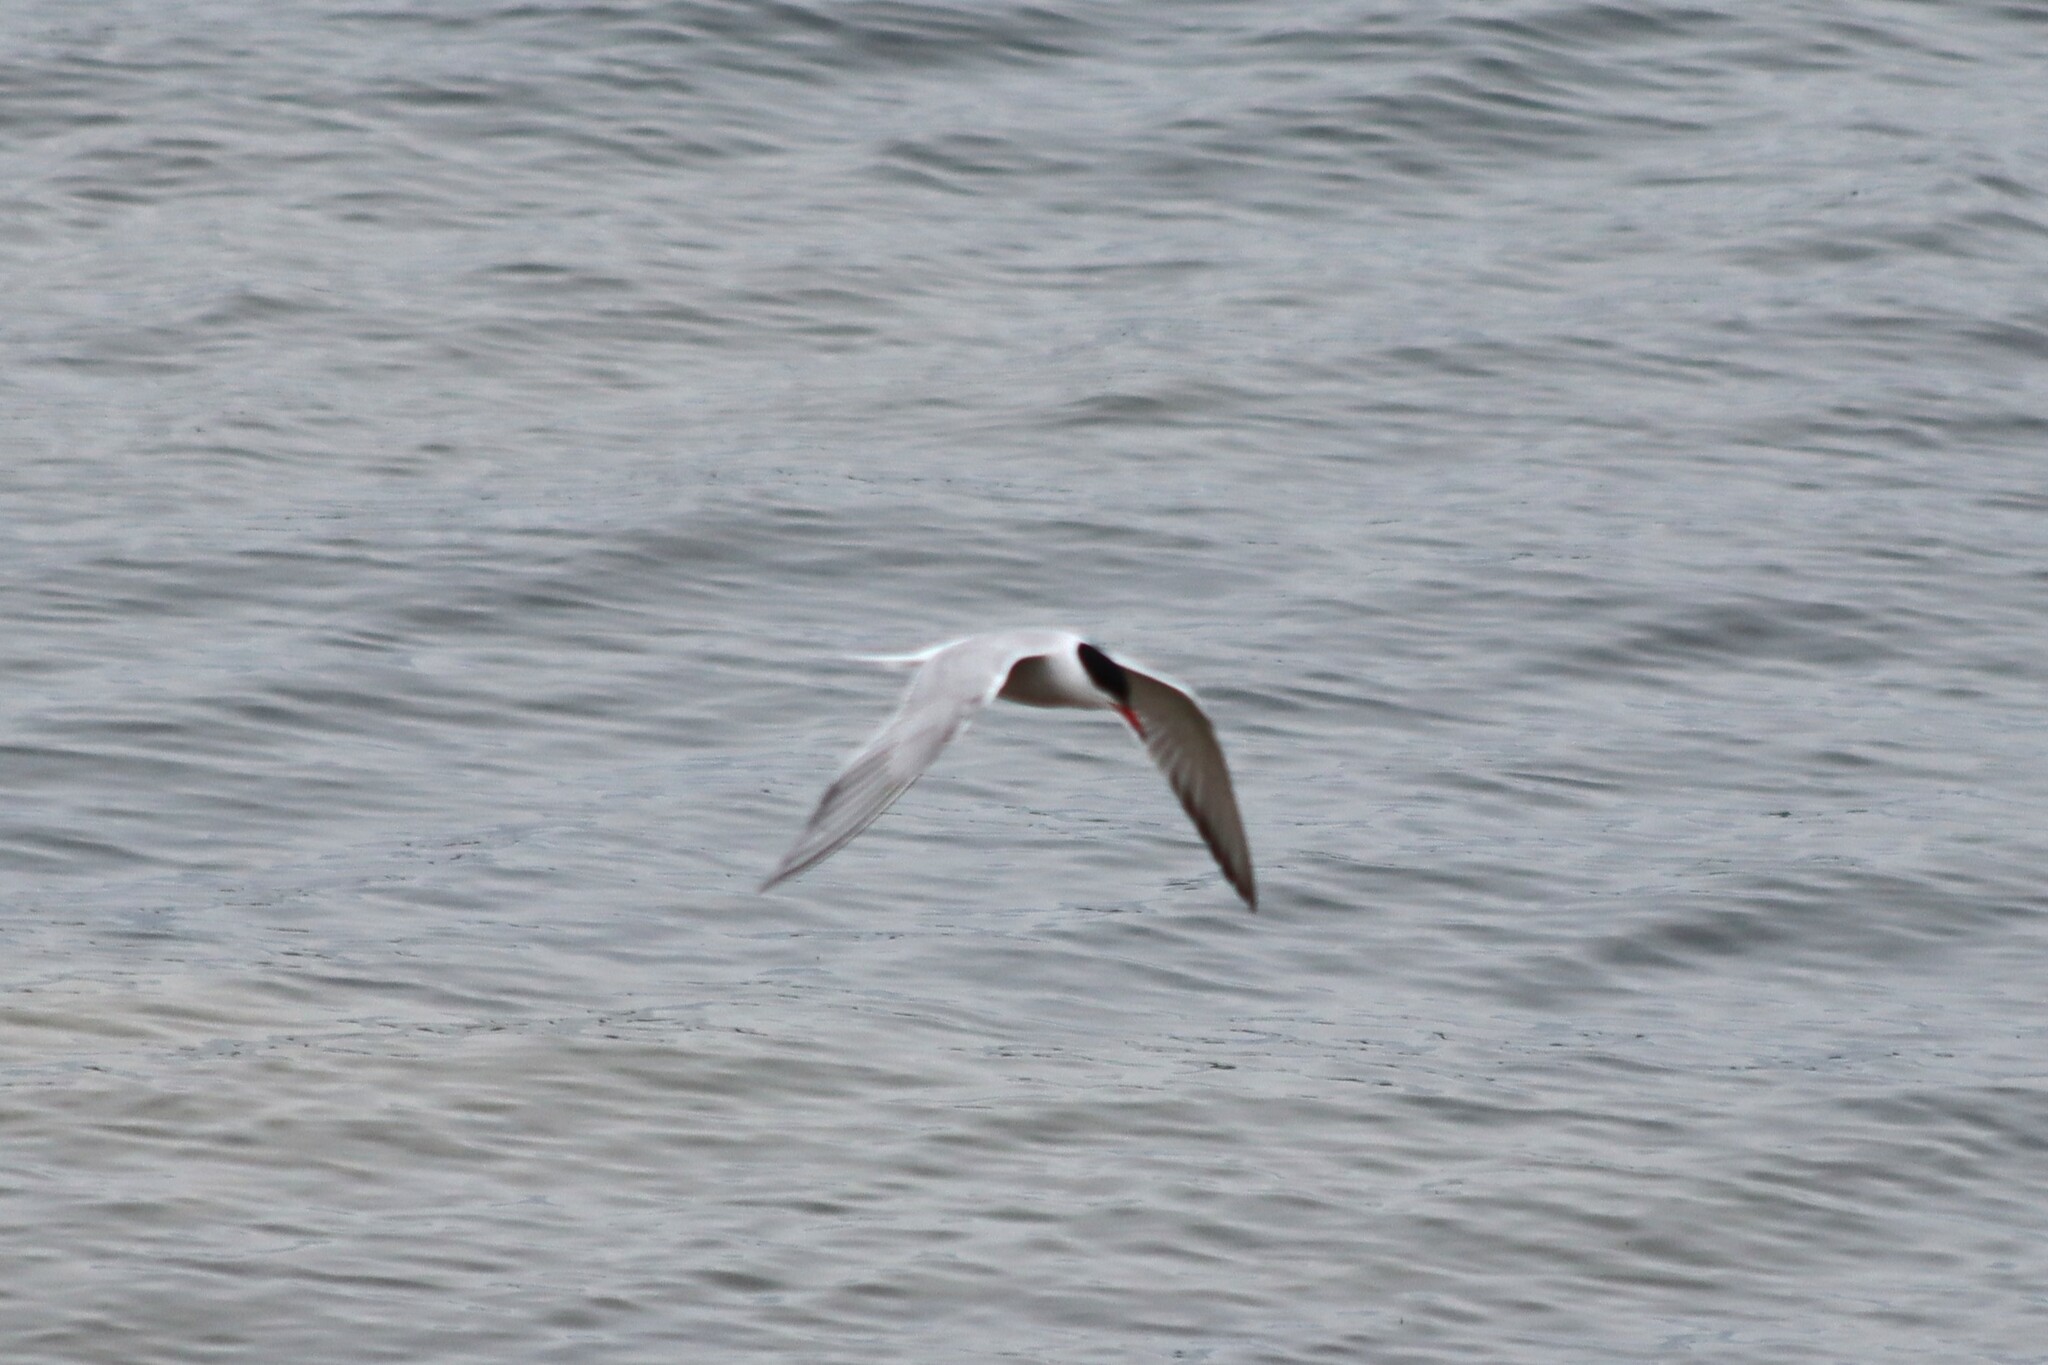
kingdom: Animalia
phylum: Chordata
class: Aves
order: Charadriiformes
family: Laridae
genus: Sterna
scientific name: Sterna hirundo
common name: Common tern
